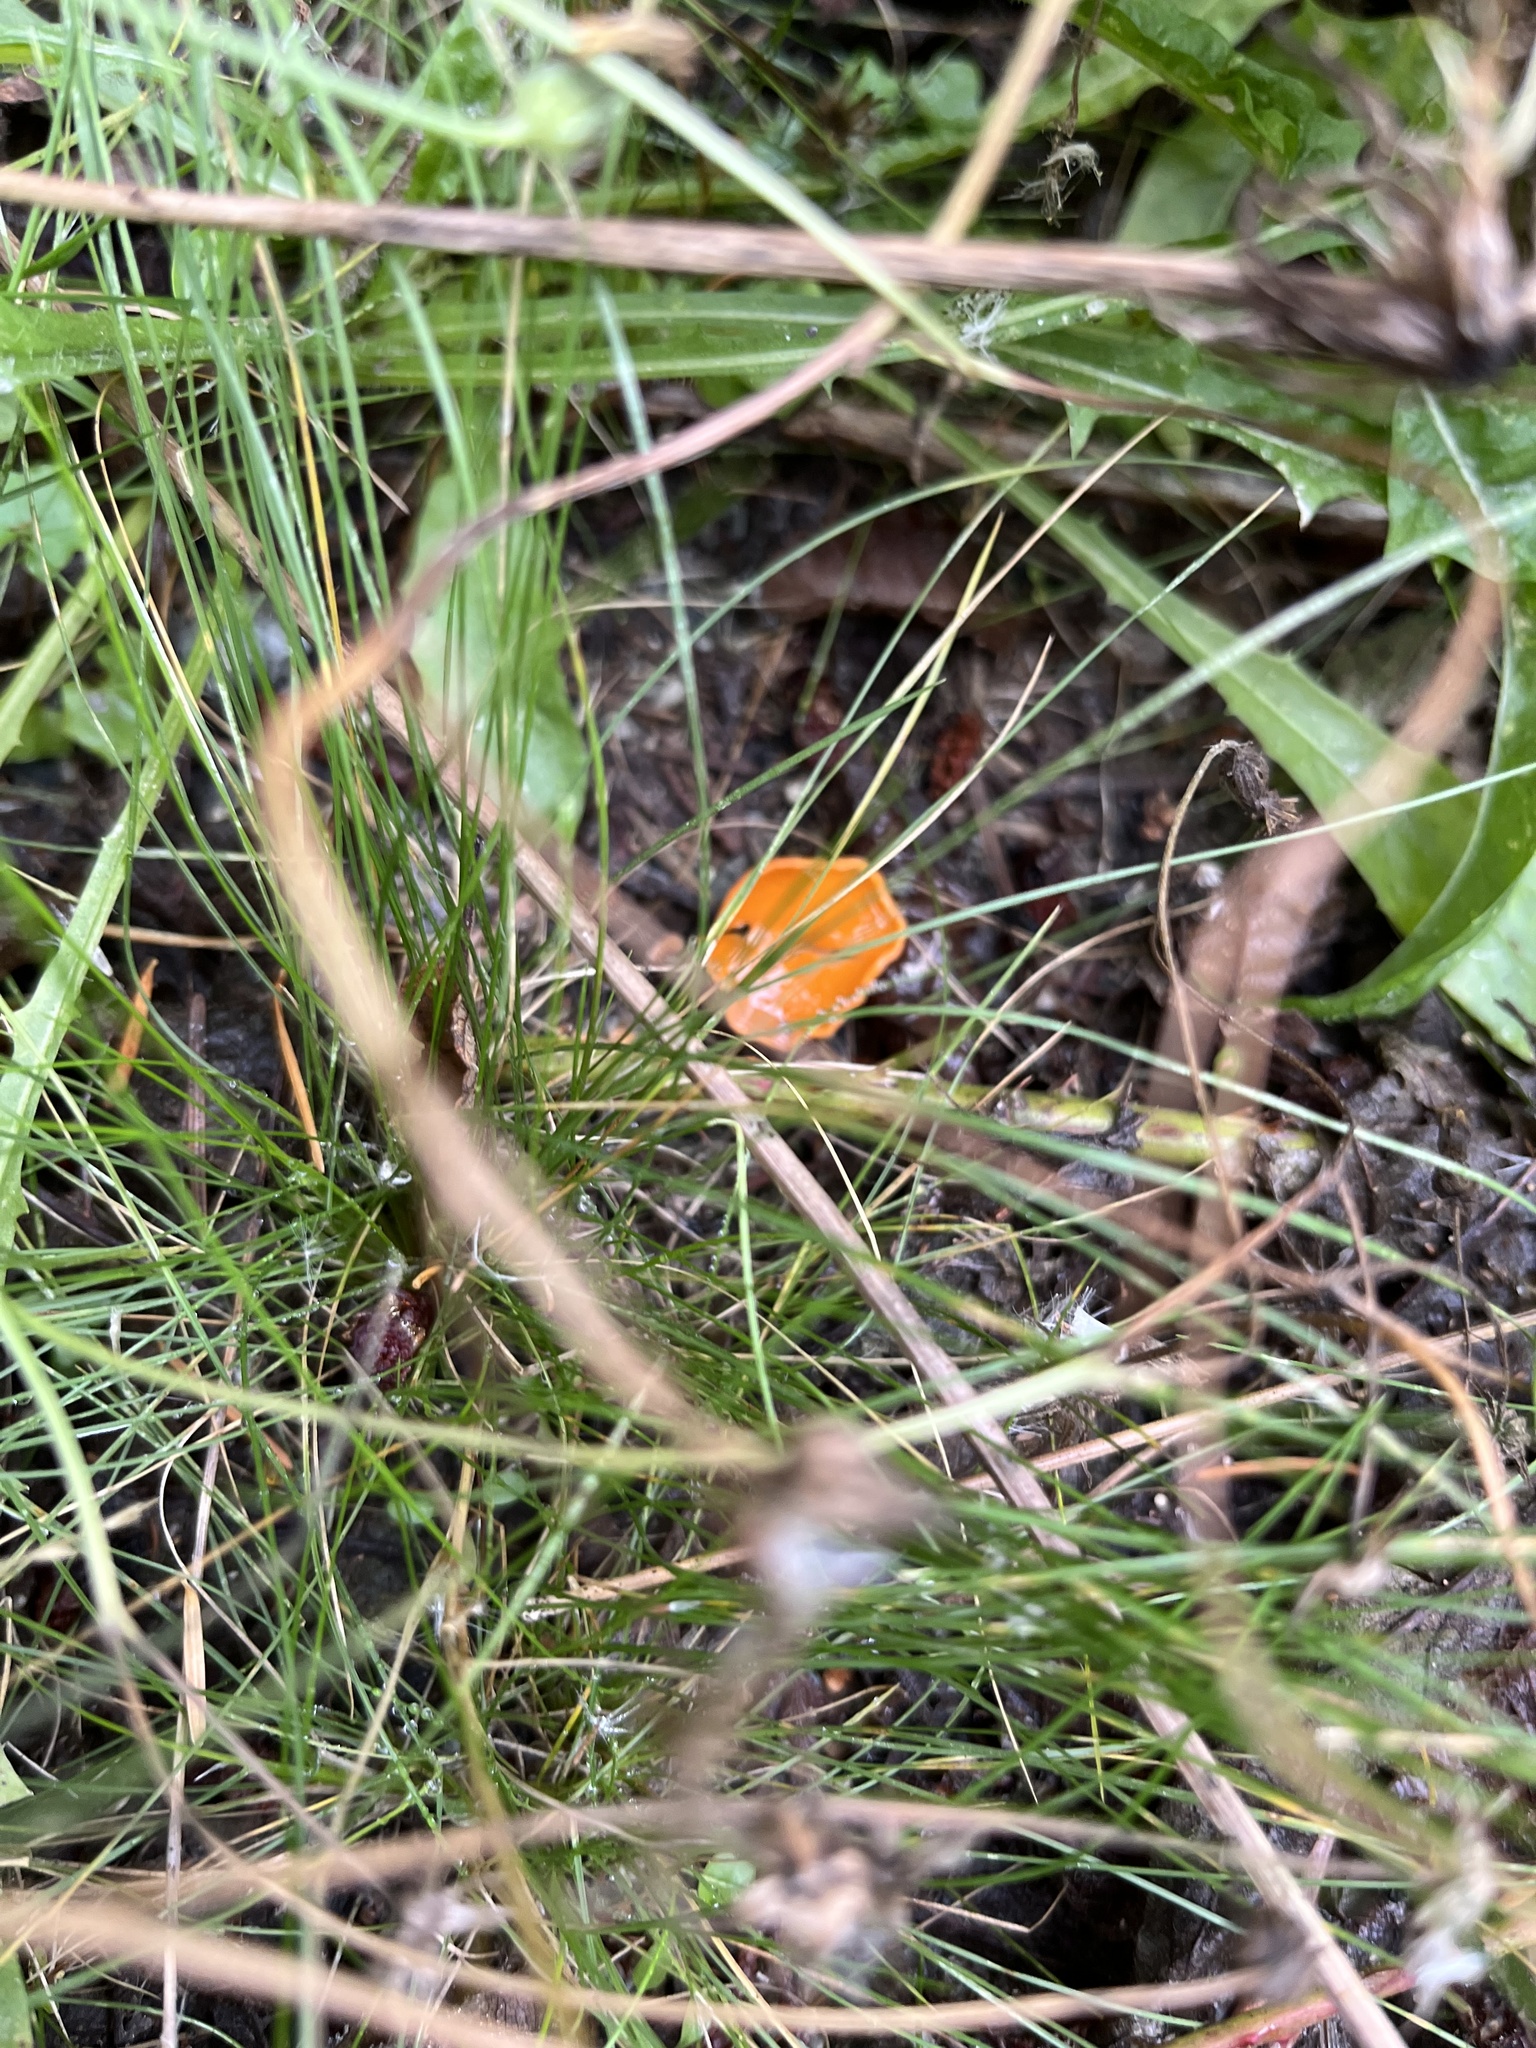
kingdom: Fungi
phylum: Ascomycota
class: Pezizomycetes
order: Pezizales
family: Pyronemataceae
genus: Aleuria
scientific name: Aleuria aurantia
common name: Orange peel fungus
